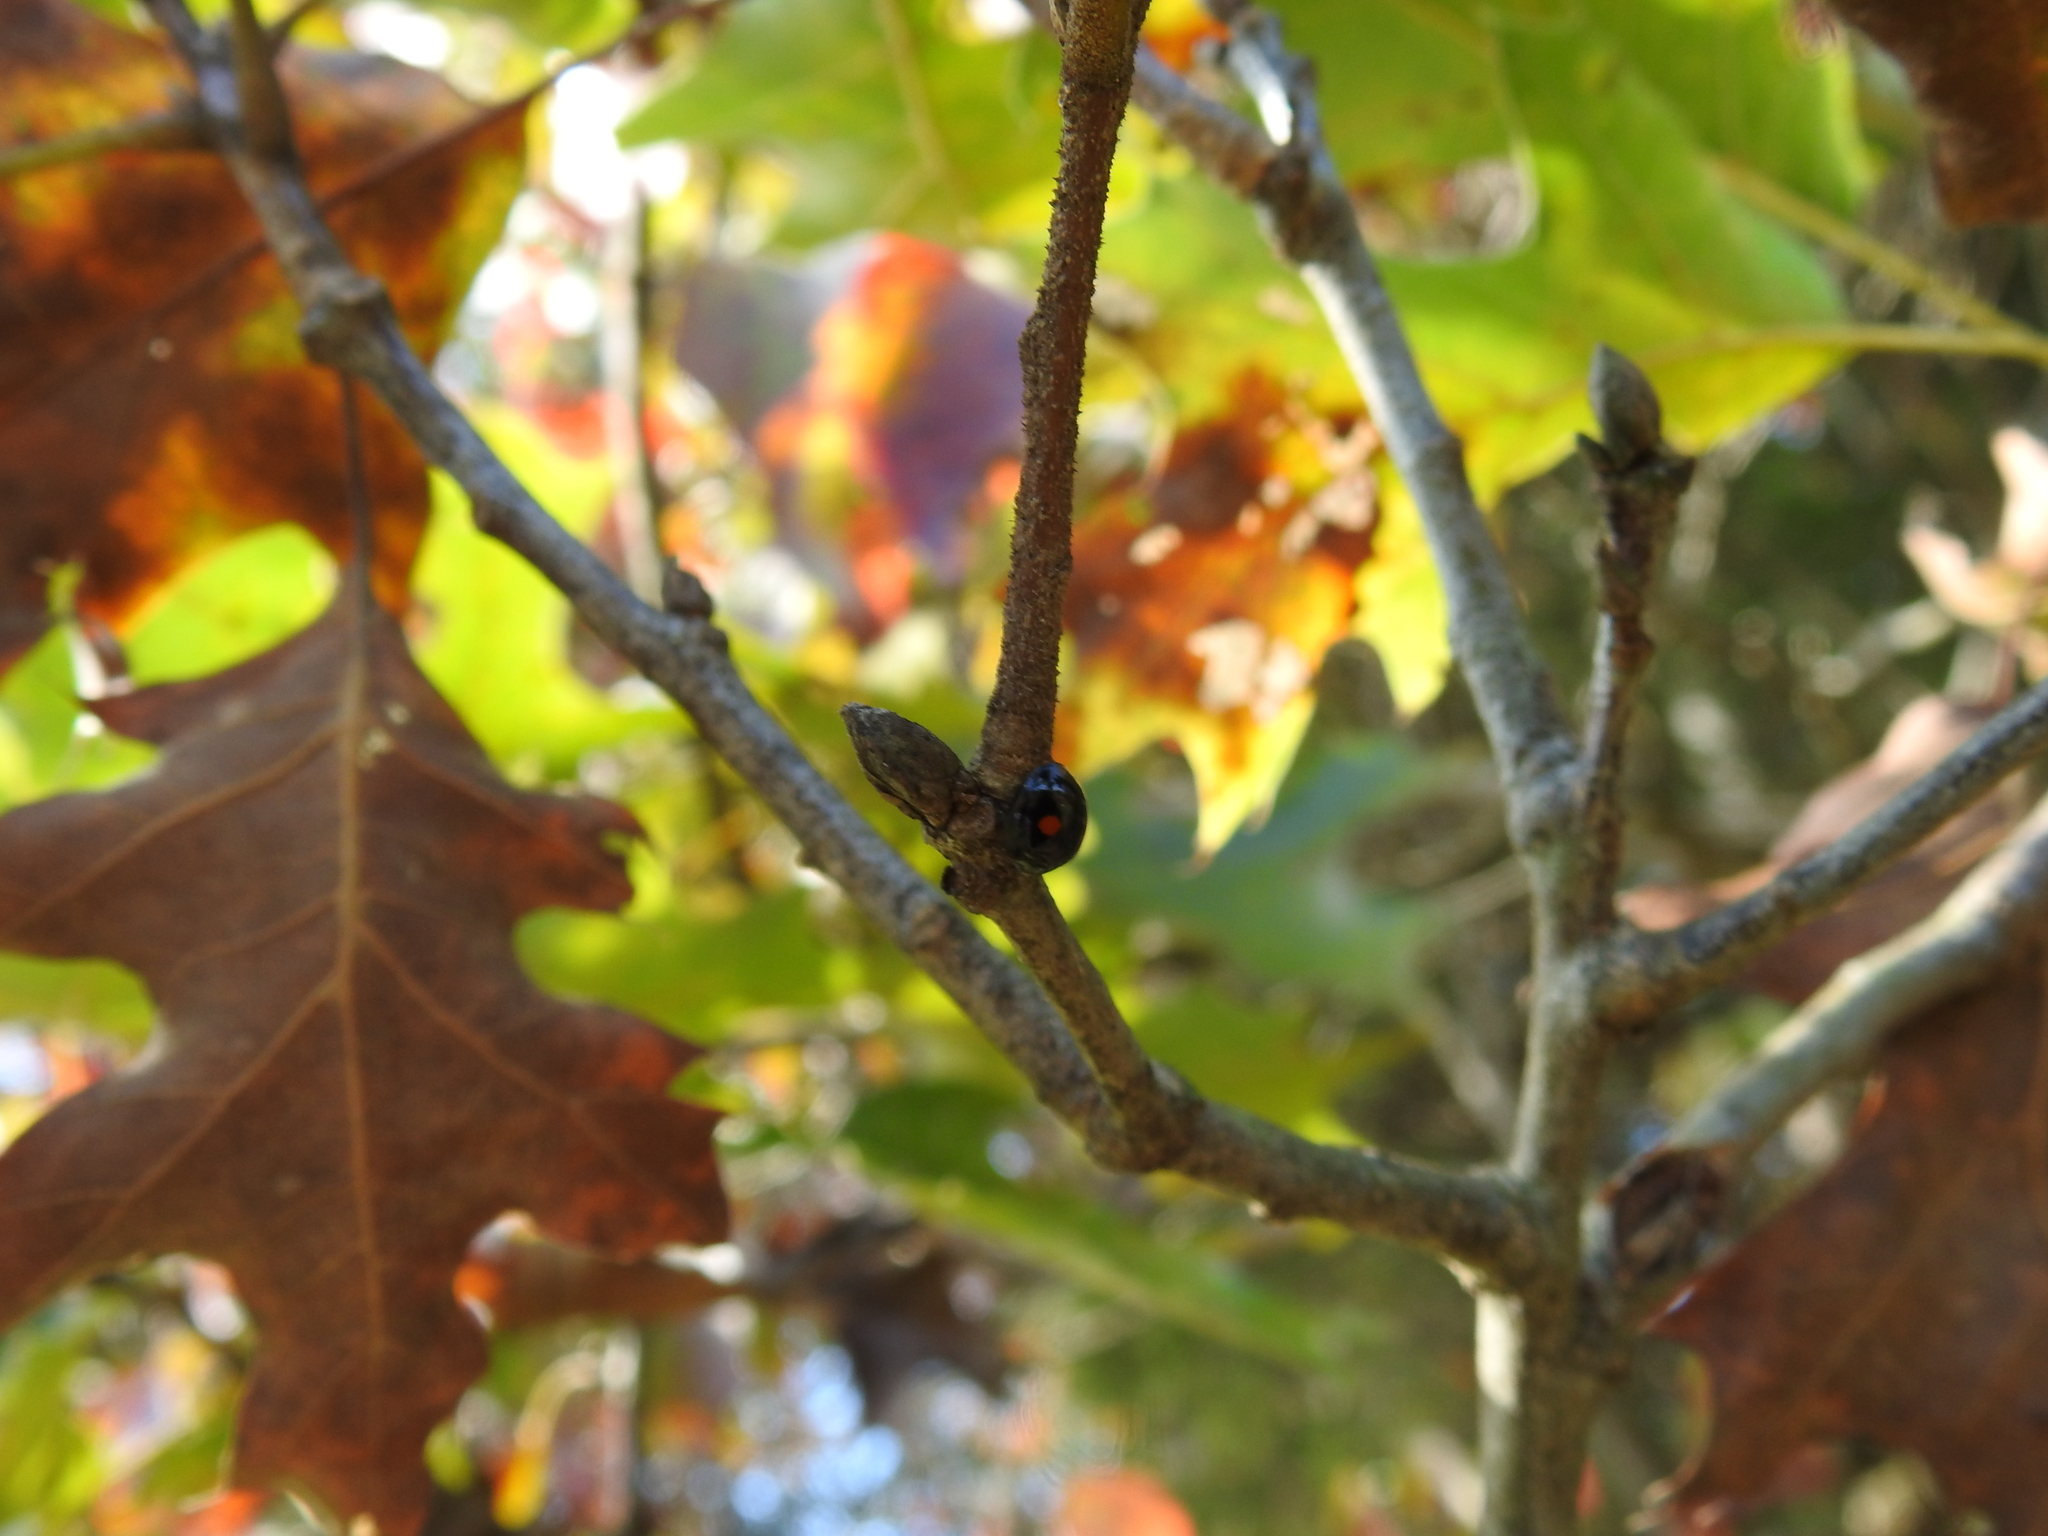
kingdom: Animalia
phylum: Arthropoda
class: Insecta
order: Coleoptera
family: Coccinellidae
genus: Chilocorus
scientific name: Chilocorus stigma
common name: Twicestabbed lady beetle
